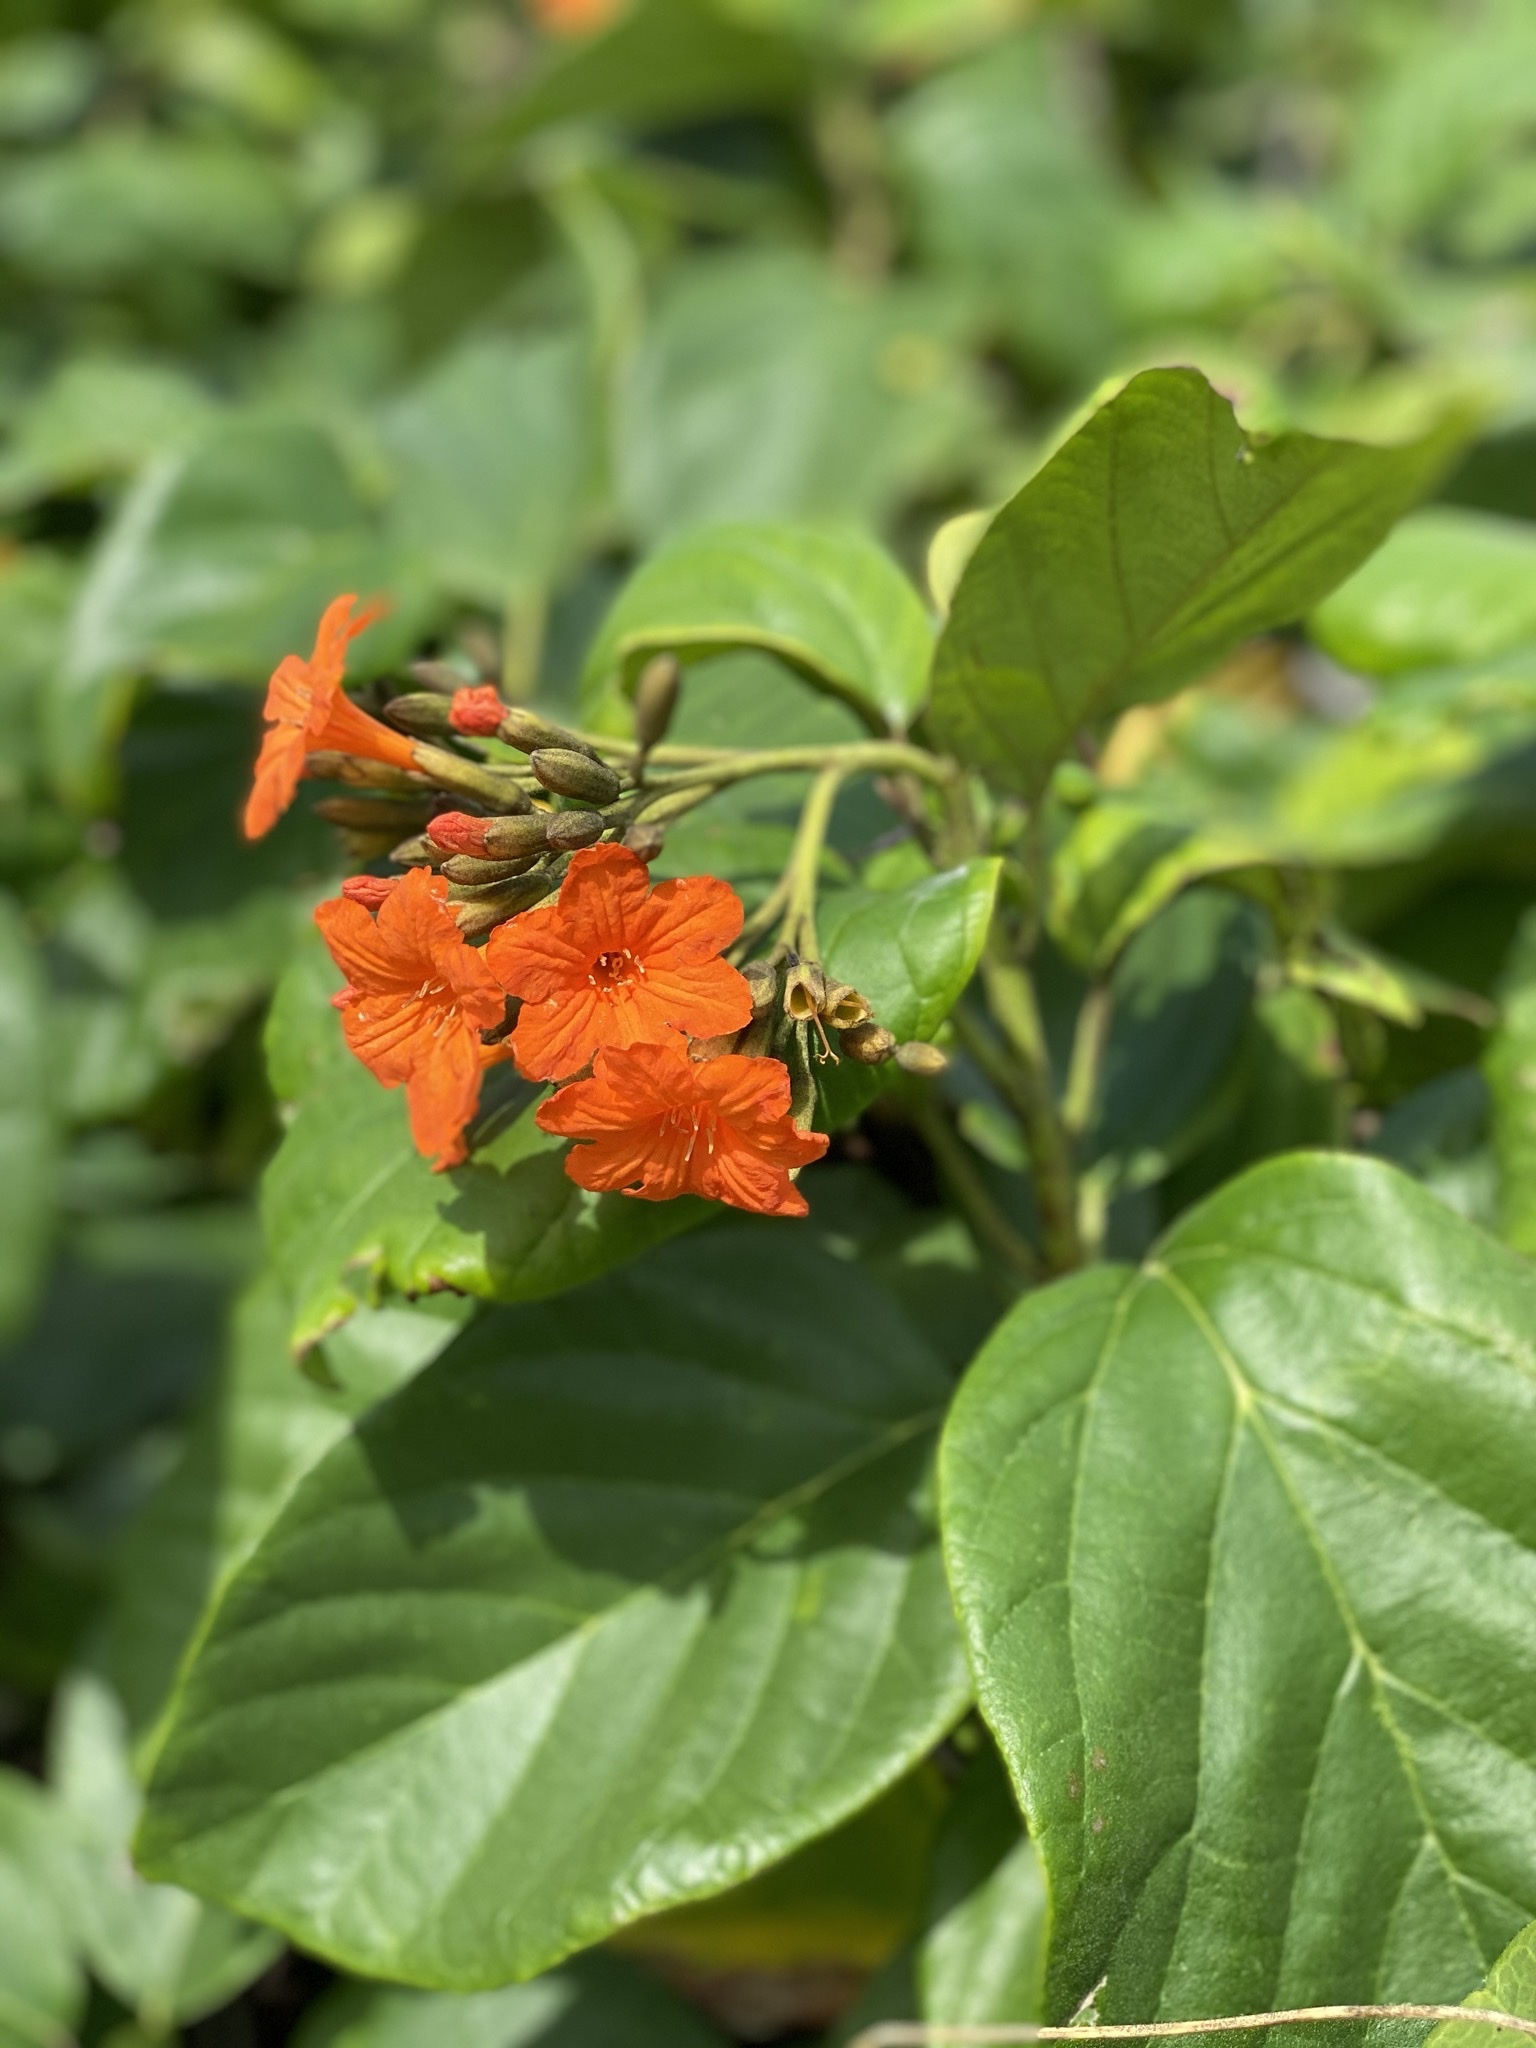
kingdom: Plantae
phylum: Tracheophyta
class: Magnoliopsida
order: Boraginales
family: Cordiaceae
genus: Cordia
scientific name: Cordia sebestena
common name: Largeleaf geigertree
